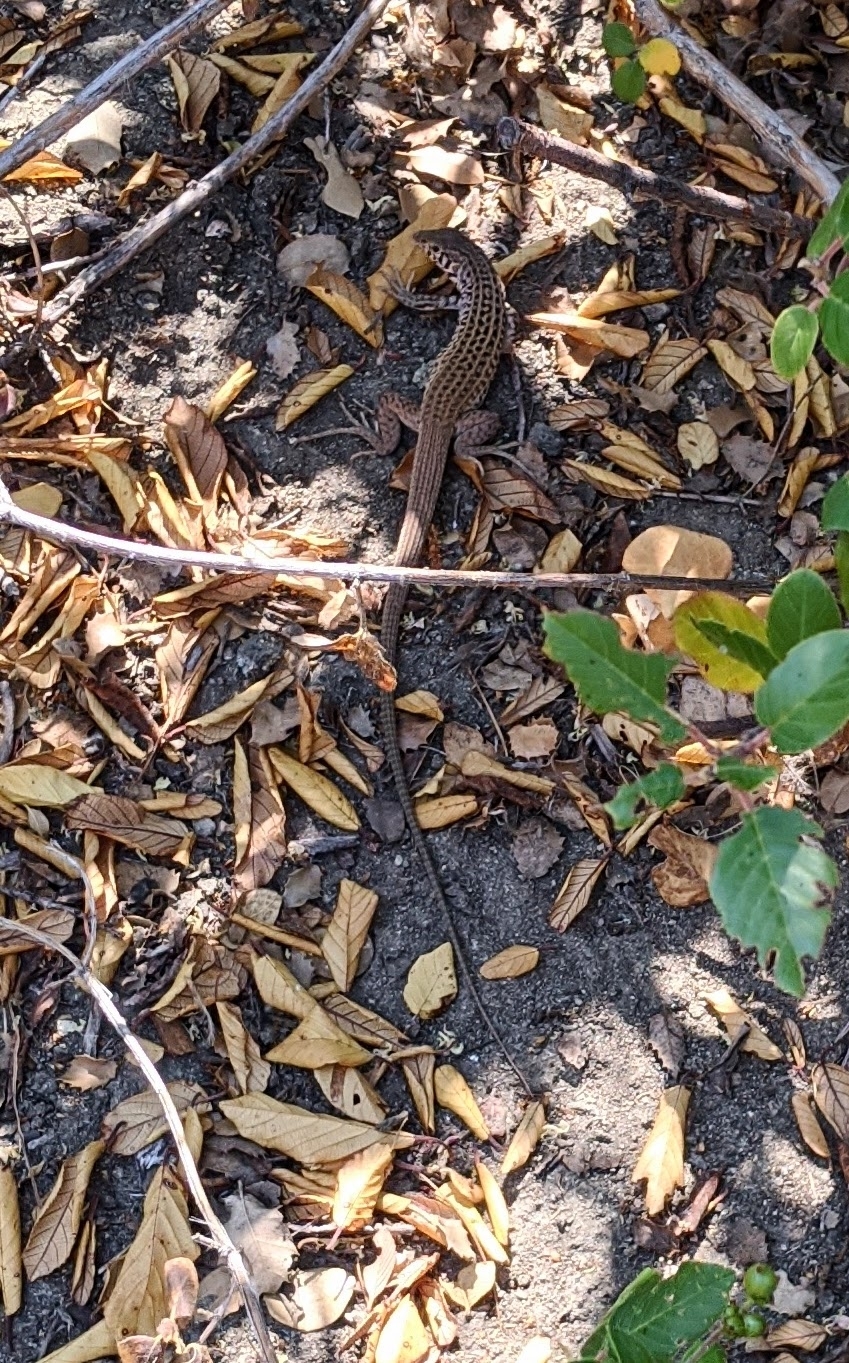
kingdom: Animalia
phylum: Chordata
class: Squamata
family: Teiidae
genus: Aspidoscelis
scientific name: Aspidoscelis tigris
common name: Tiger whiptail
